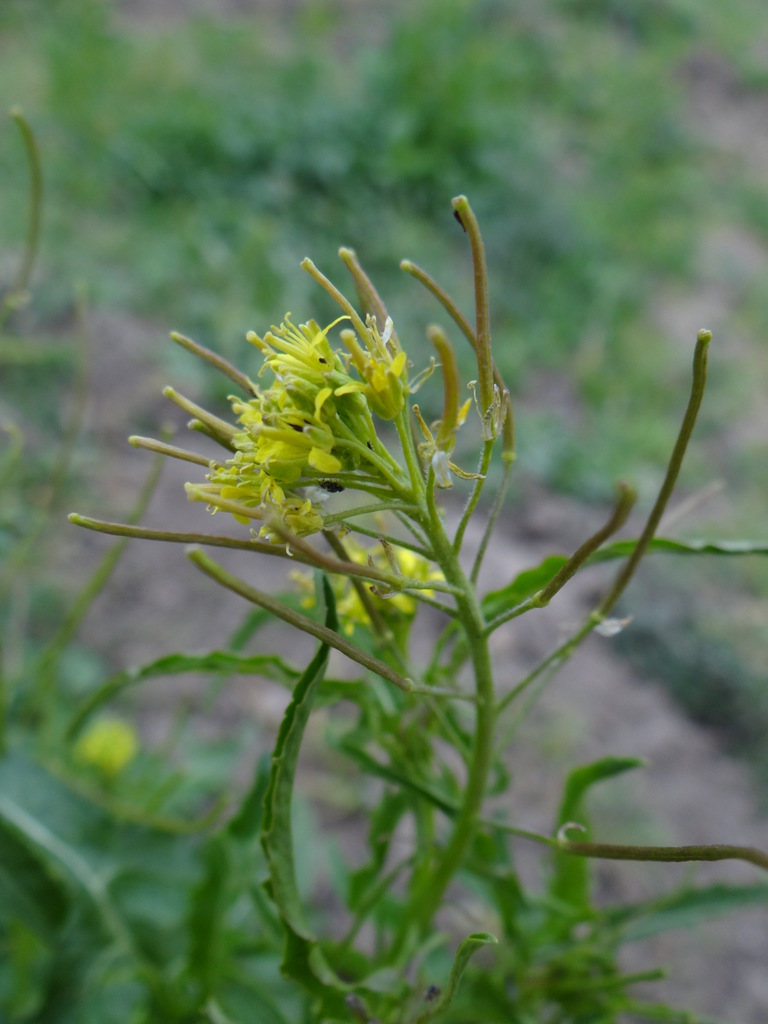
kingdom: Plantae
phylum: Tracheophyta
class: Magnoliopsida
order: Brassicales
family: Brassicaceae
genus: Sisymbrium
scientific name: Sisymbrium irio
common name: London rocket
